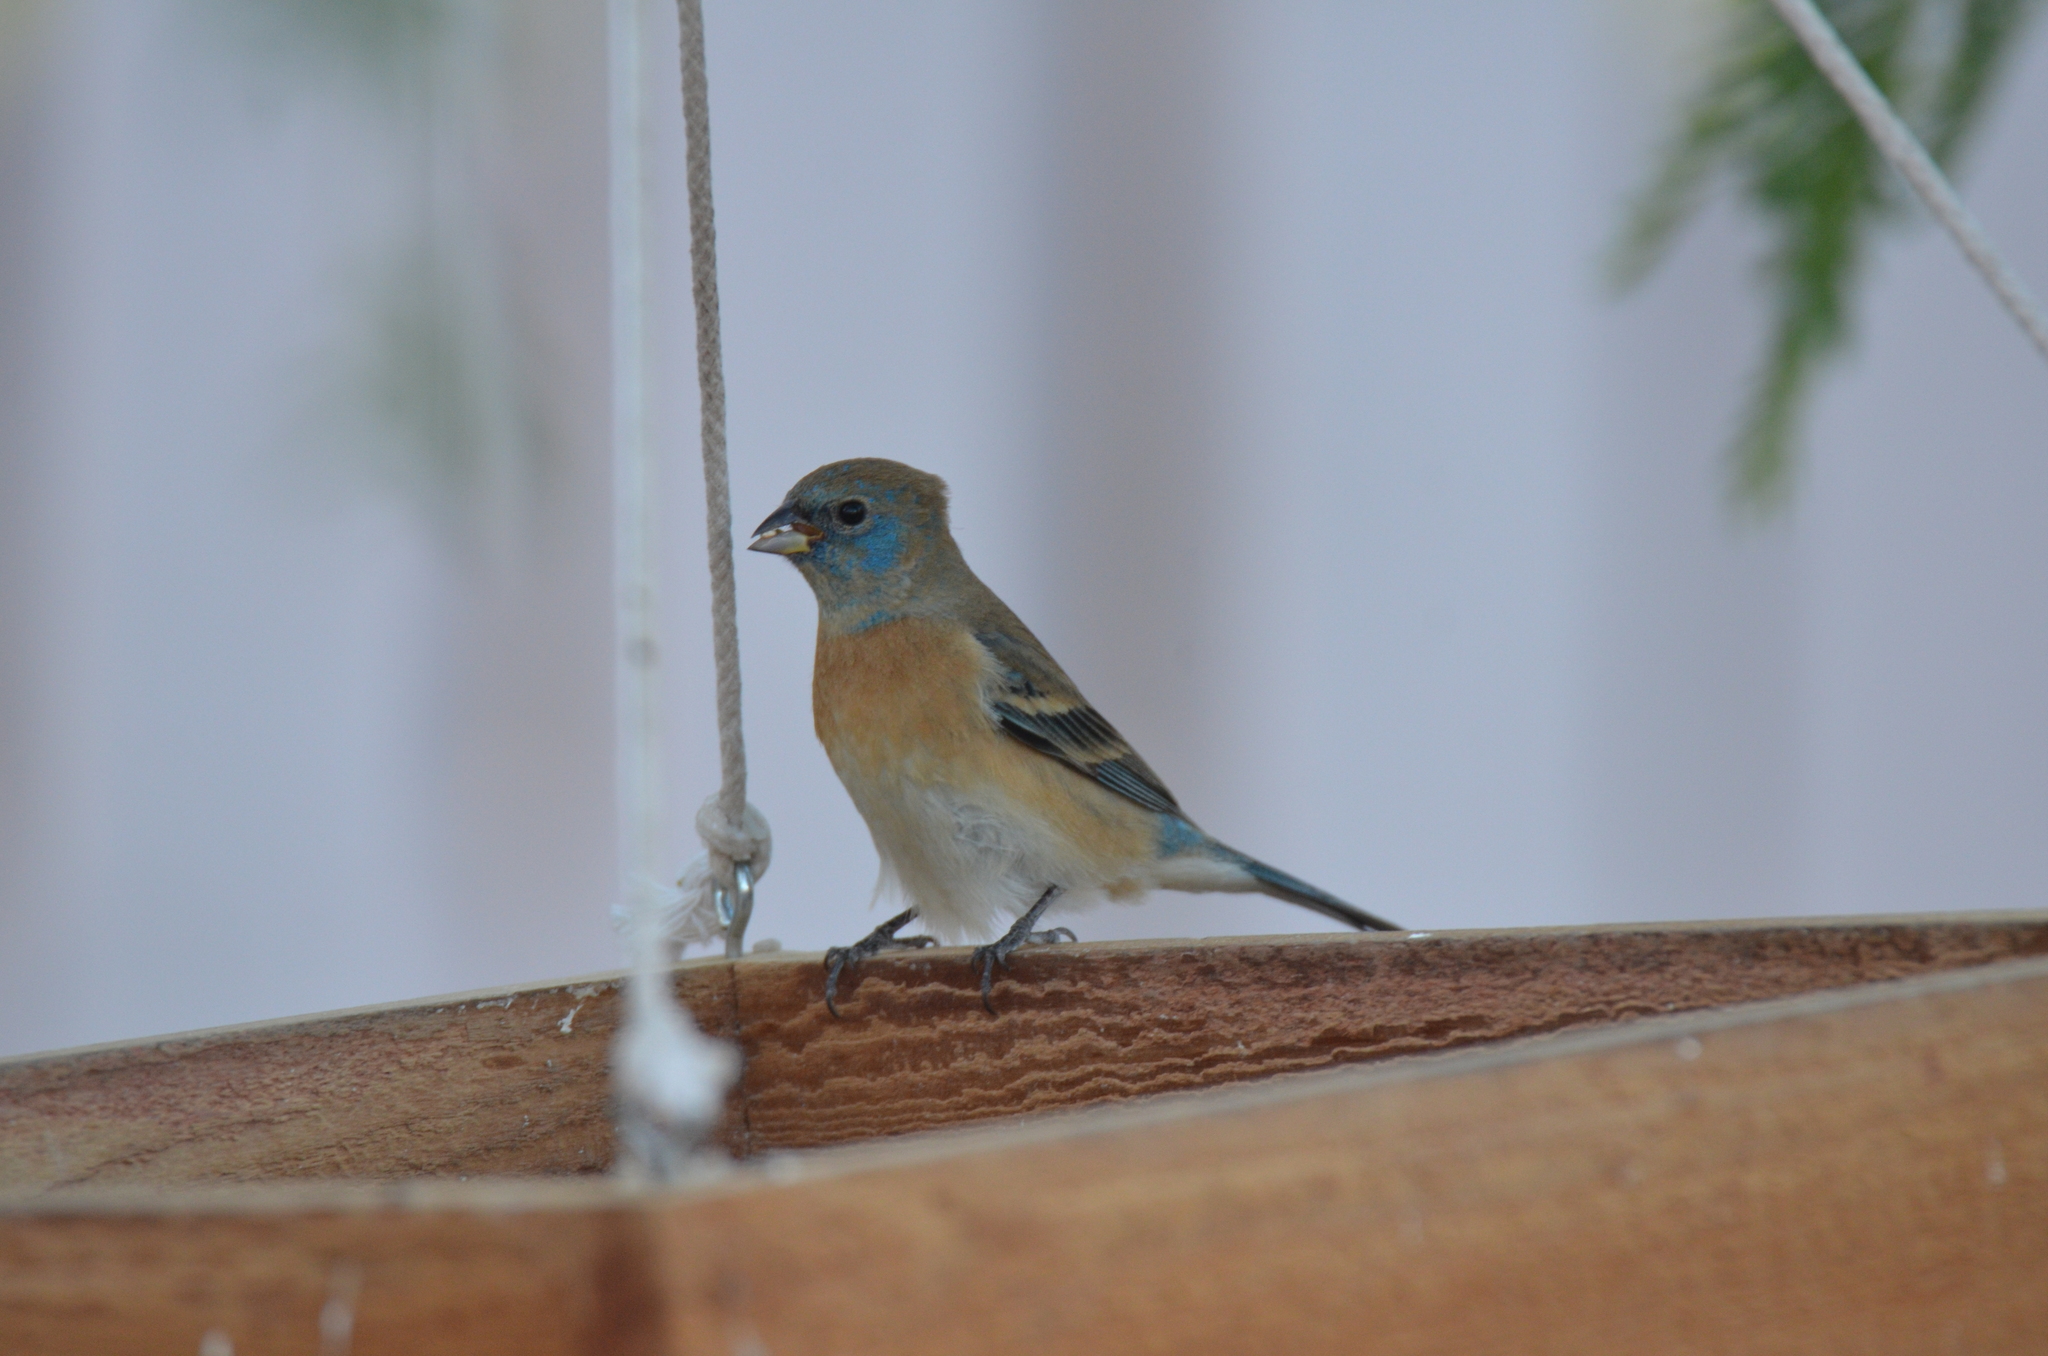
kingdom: Animalia
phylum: Chordata
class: Aves
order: Passeriformes
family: Cardinalidae
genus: Passerina
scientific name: Passerina amoena
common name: Lazuli bunting
